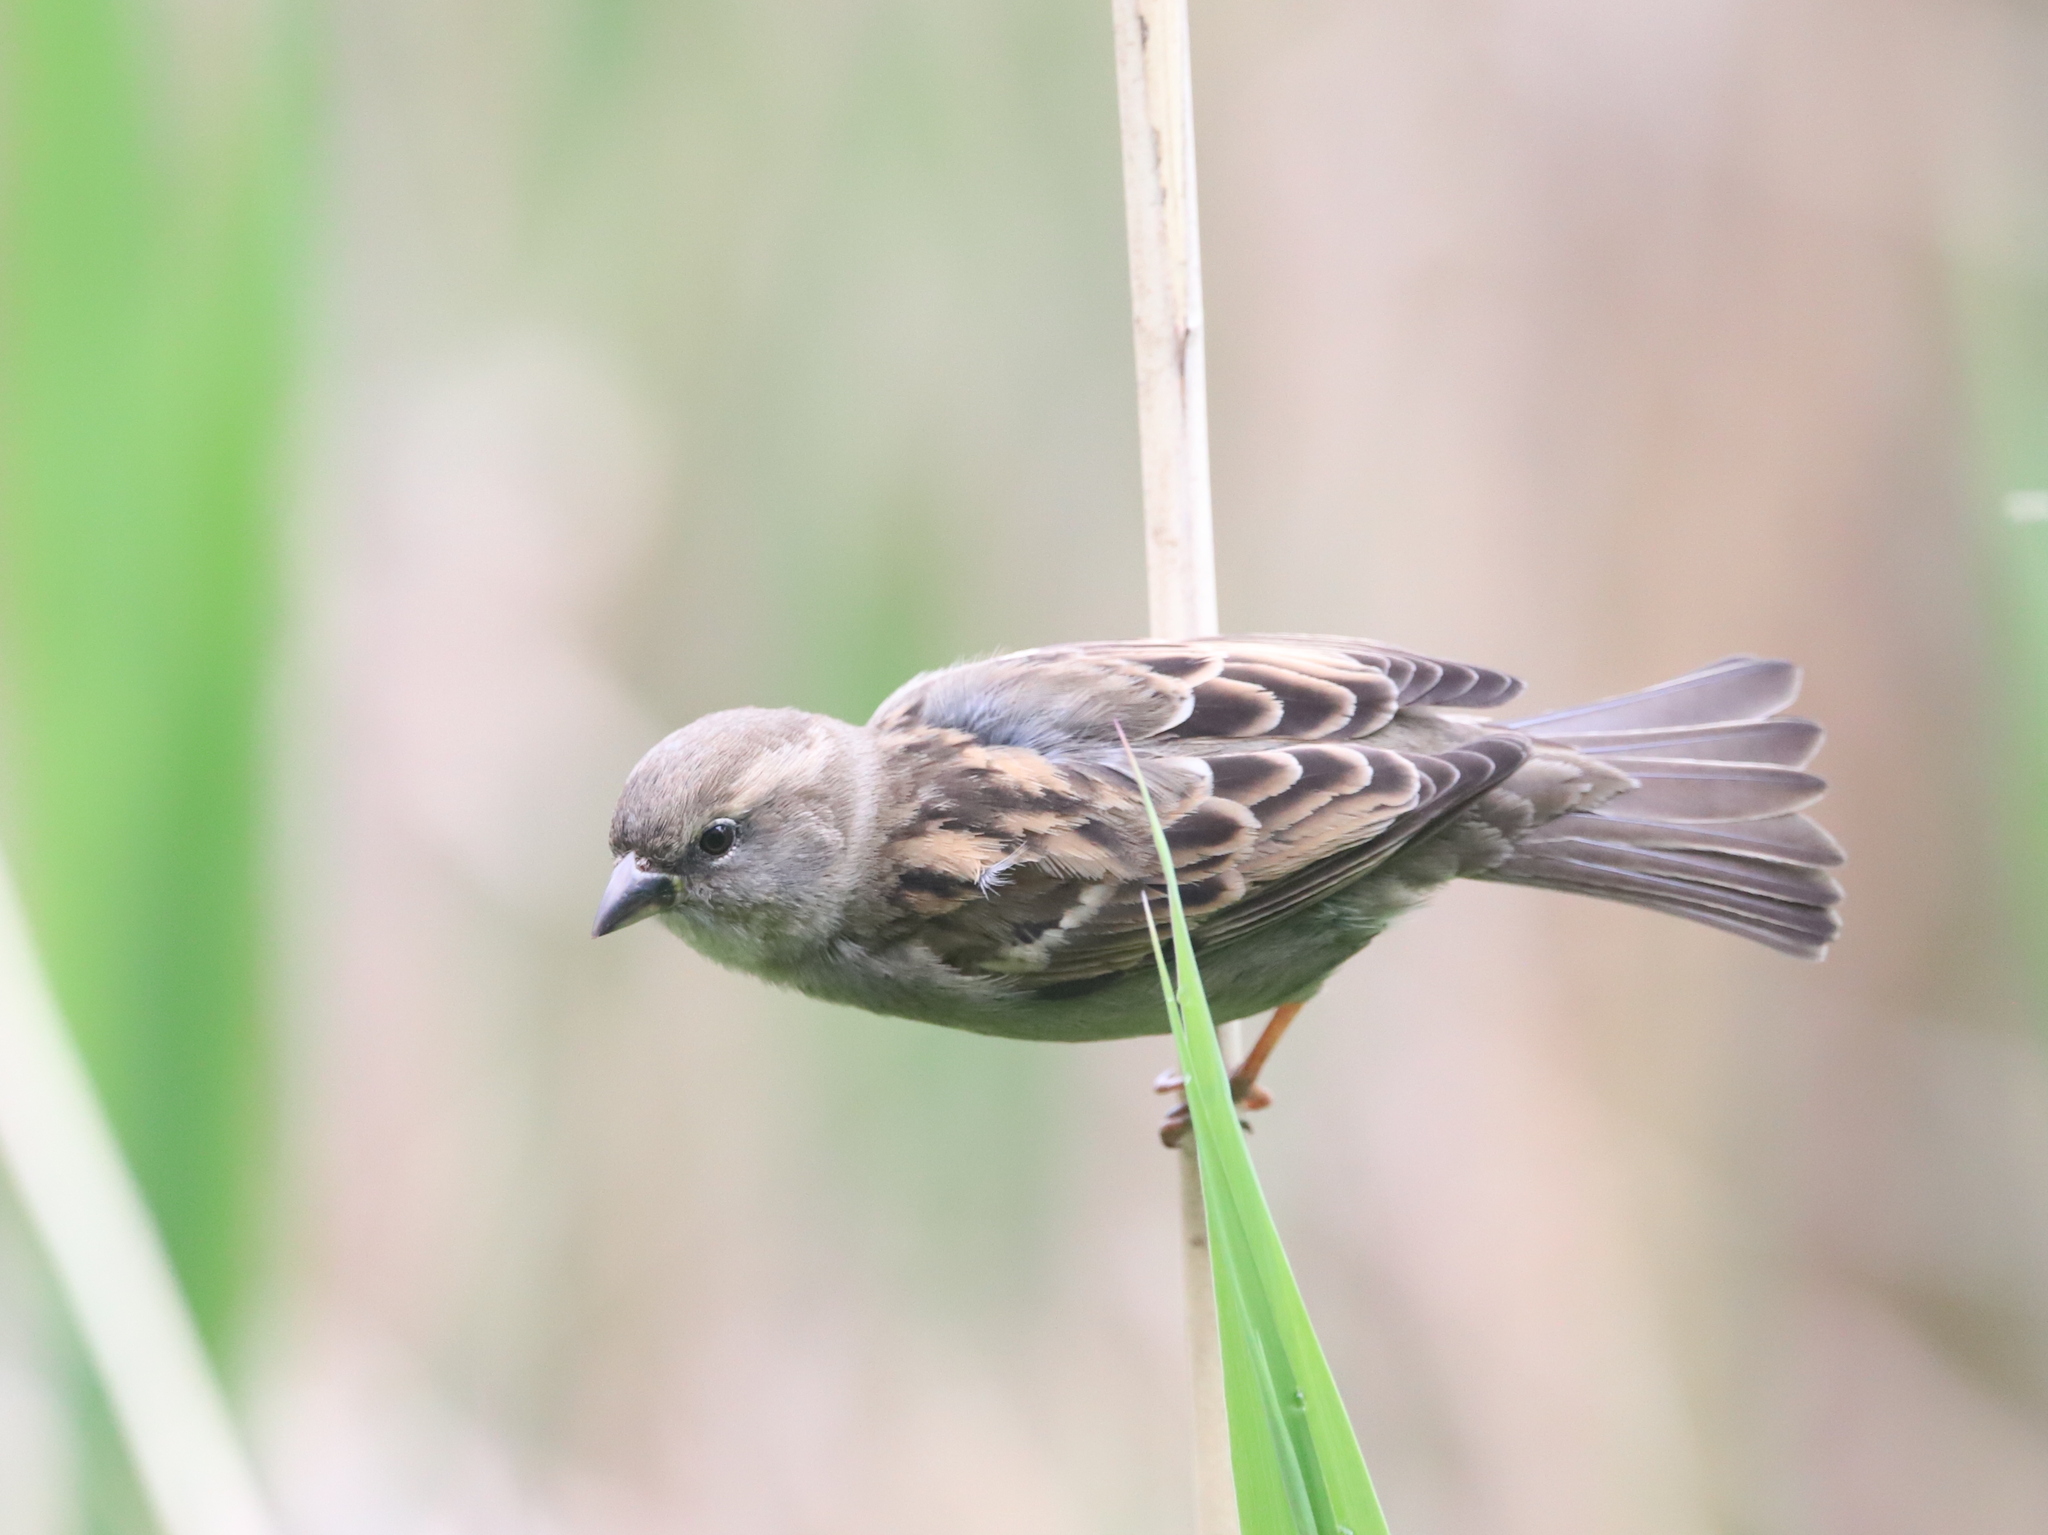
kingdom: Animalia
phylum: Chordata
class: Aves
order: Passeriformes
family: Passeridae
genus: Passer
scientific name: Passer domesticus
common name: House sparrow
